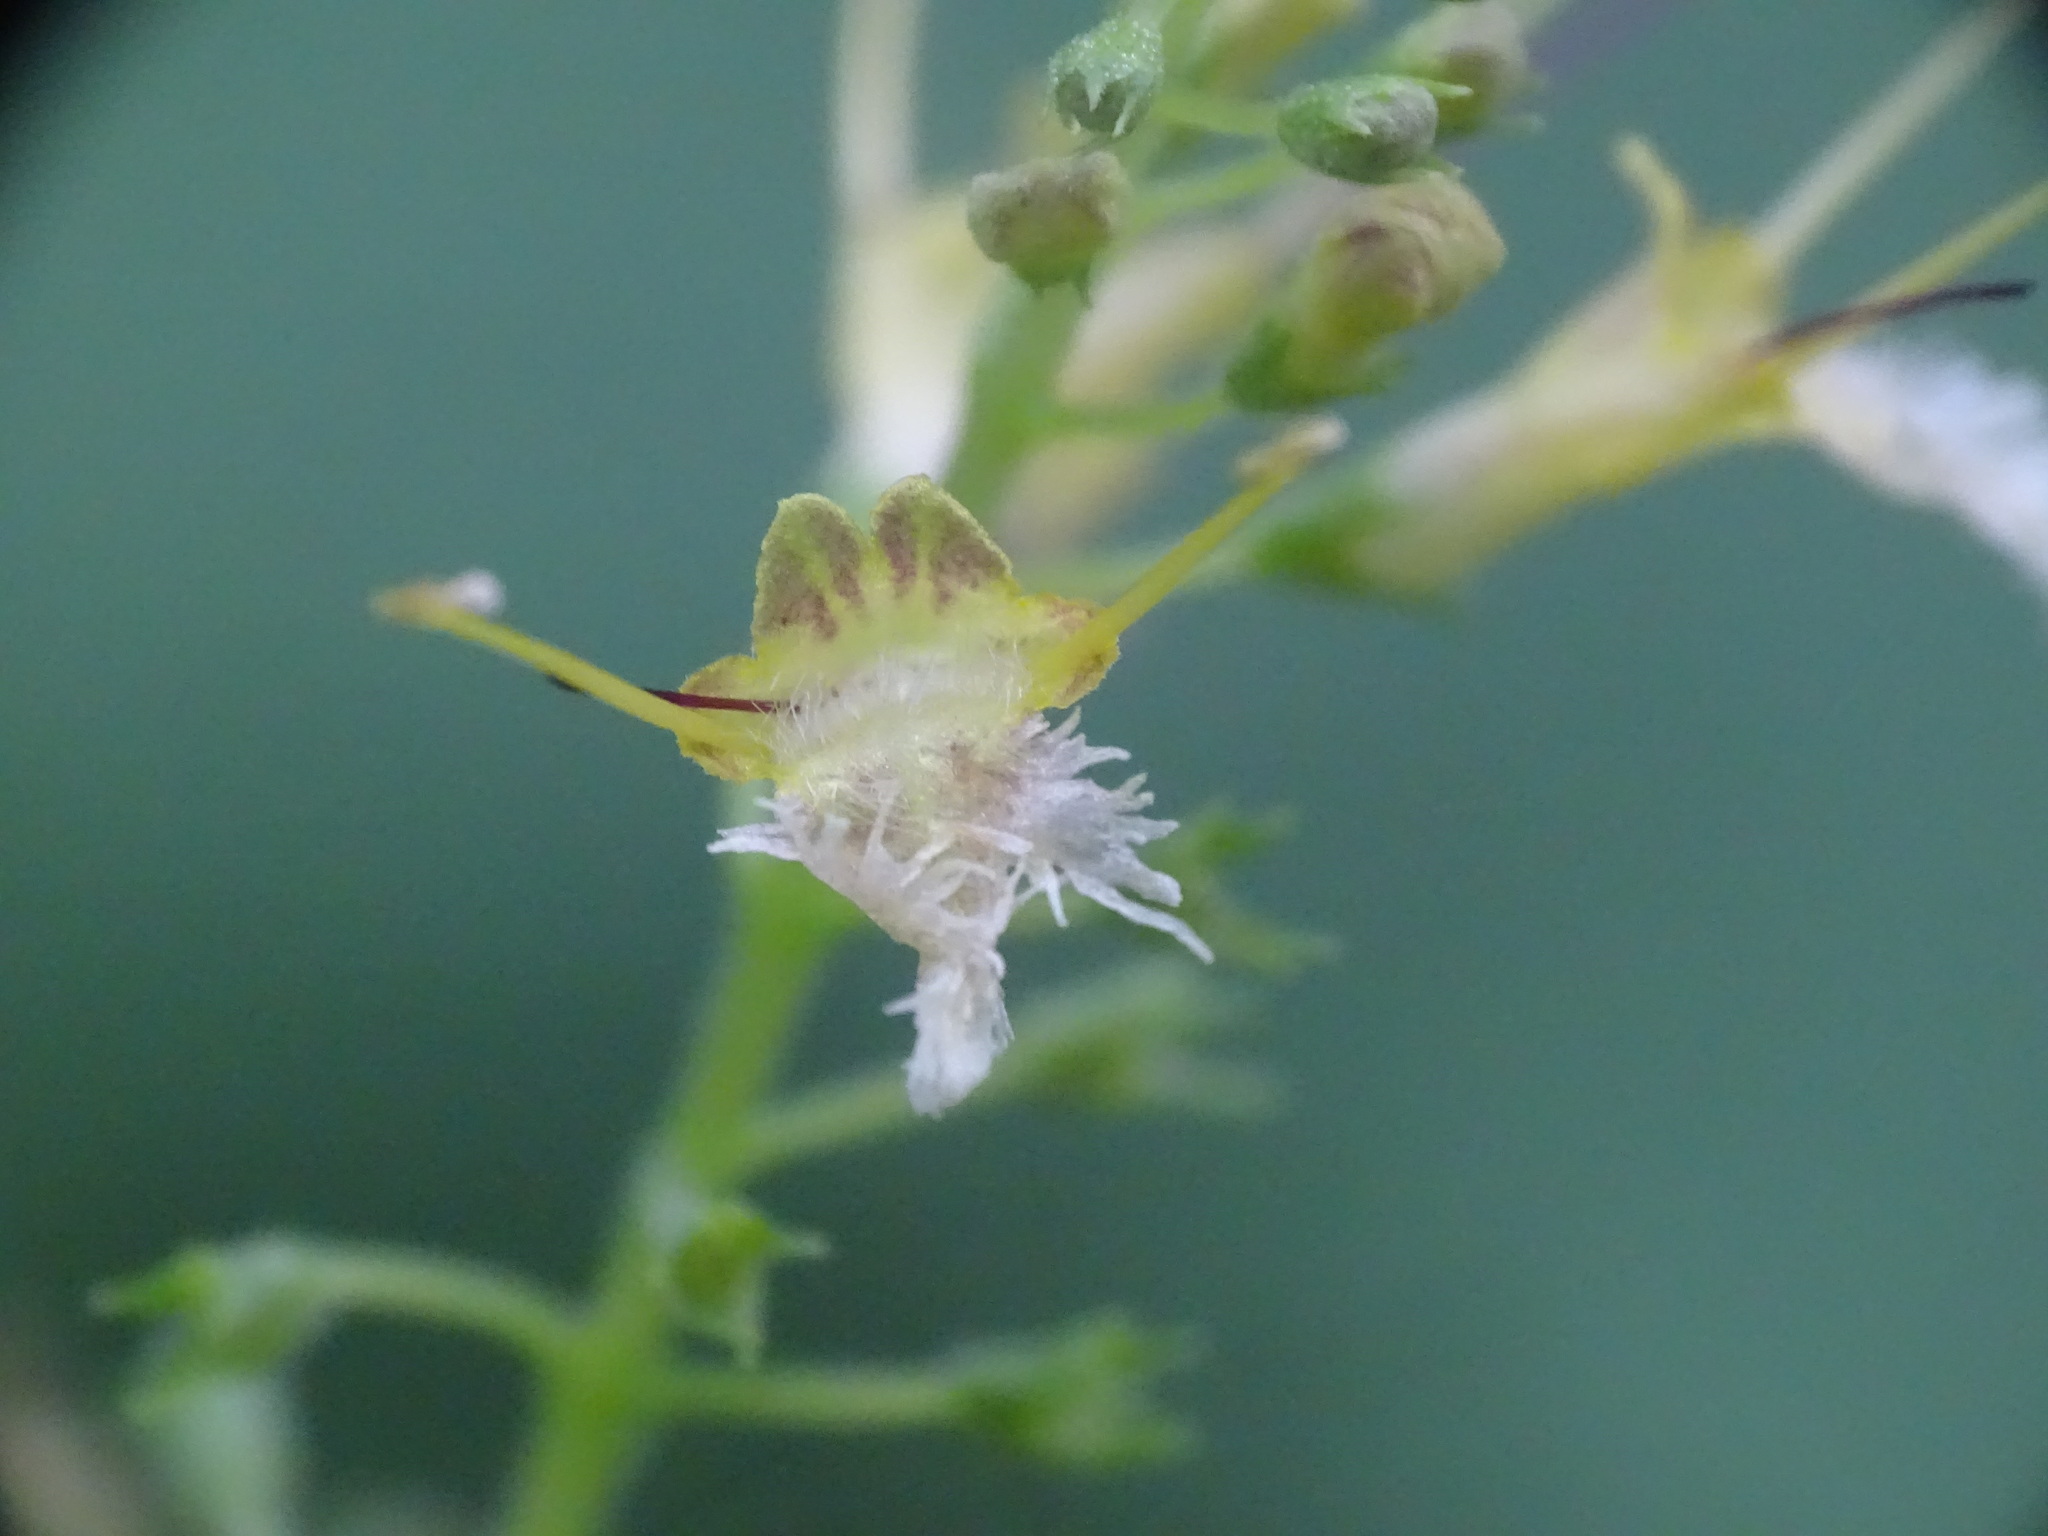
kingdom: Plantae
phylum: Tracheophyta
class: Magnoliopsida
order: Lamiales
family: Lamiaceae
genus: Collinsonia
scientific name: Collinsonia canadensis
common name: Northern horsebalm
